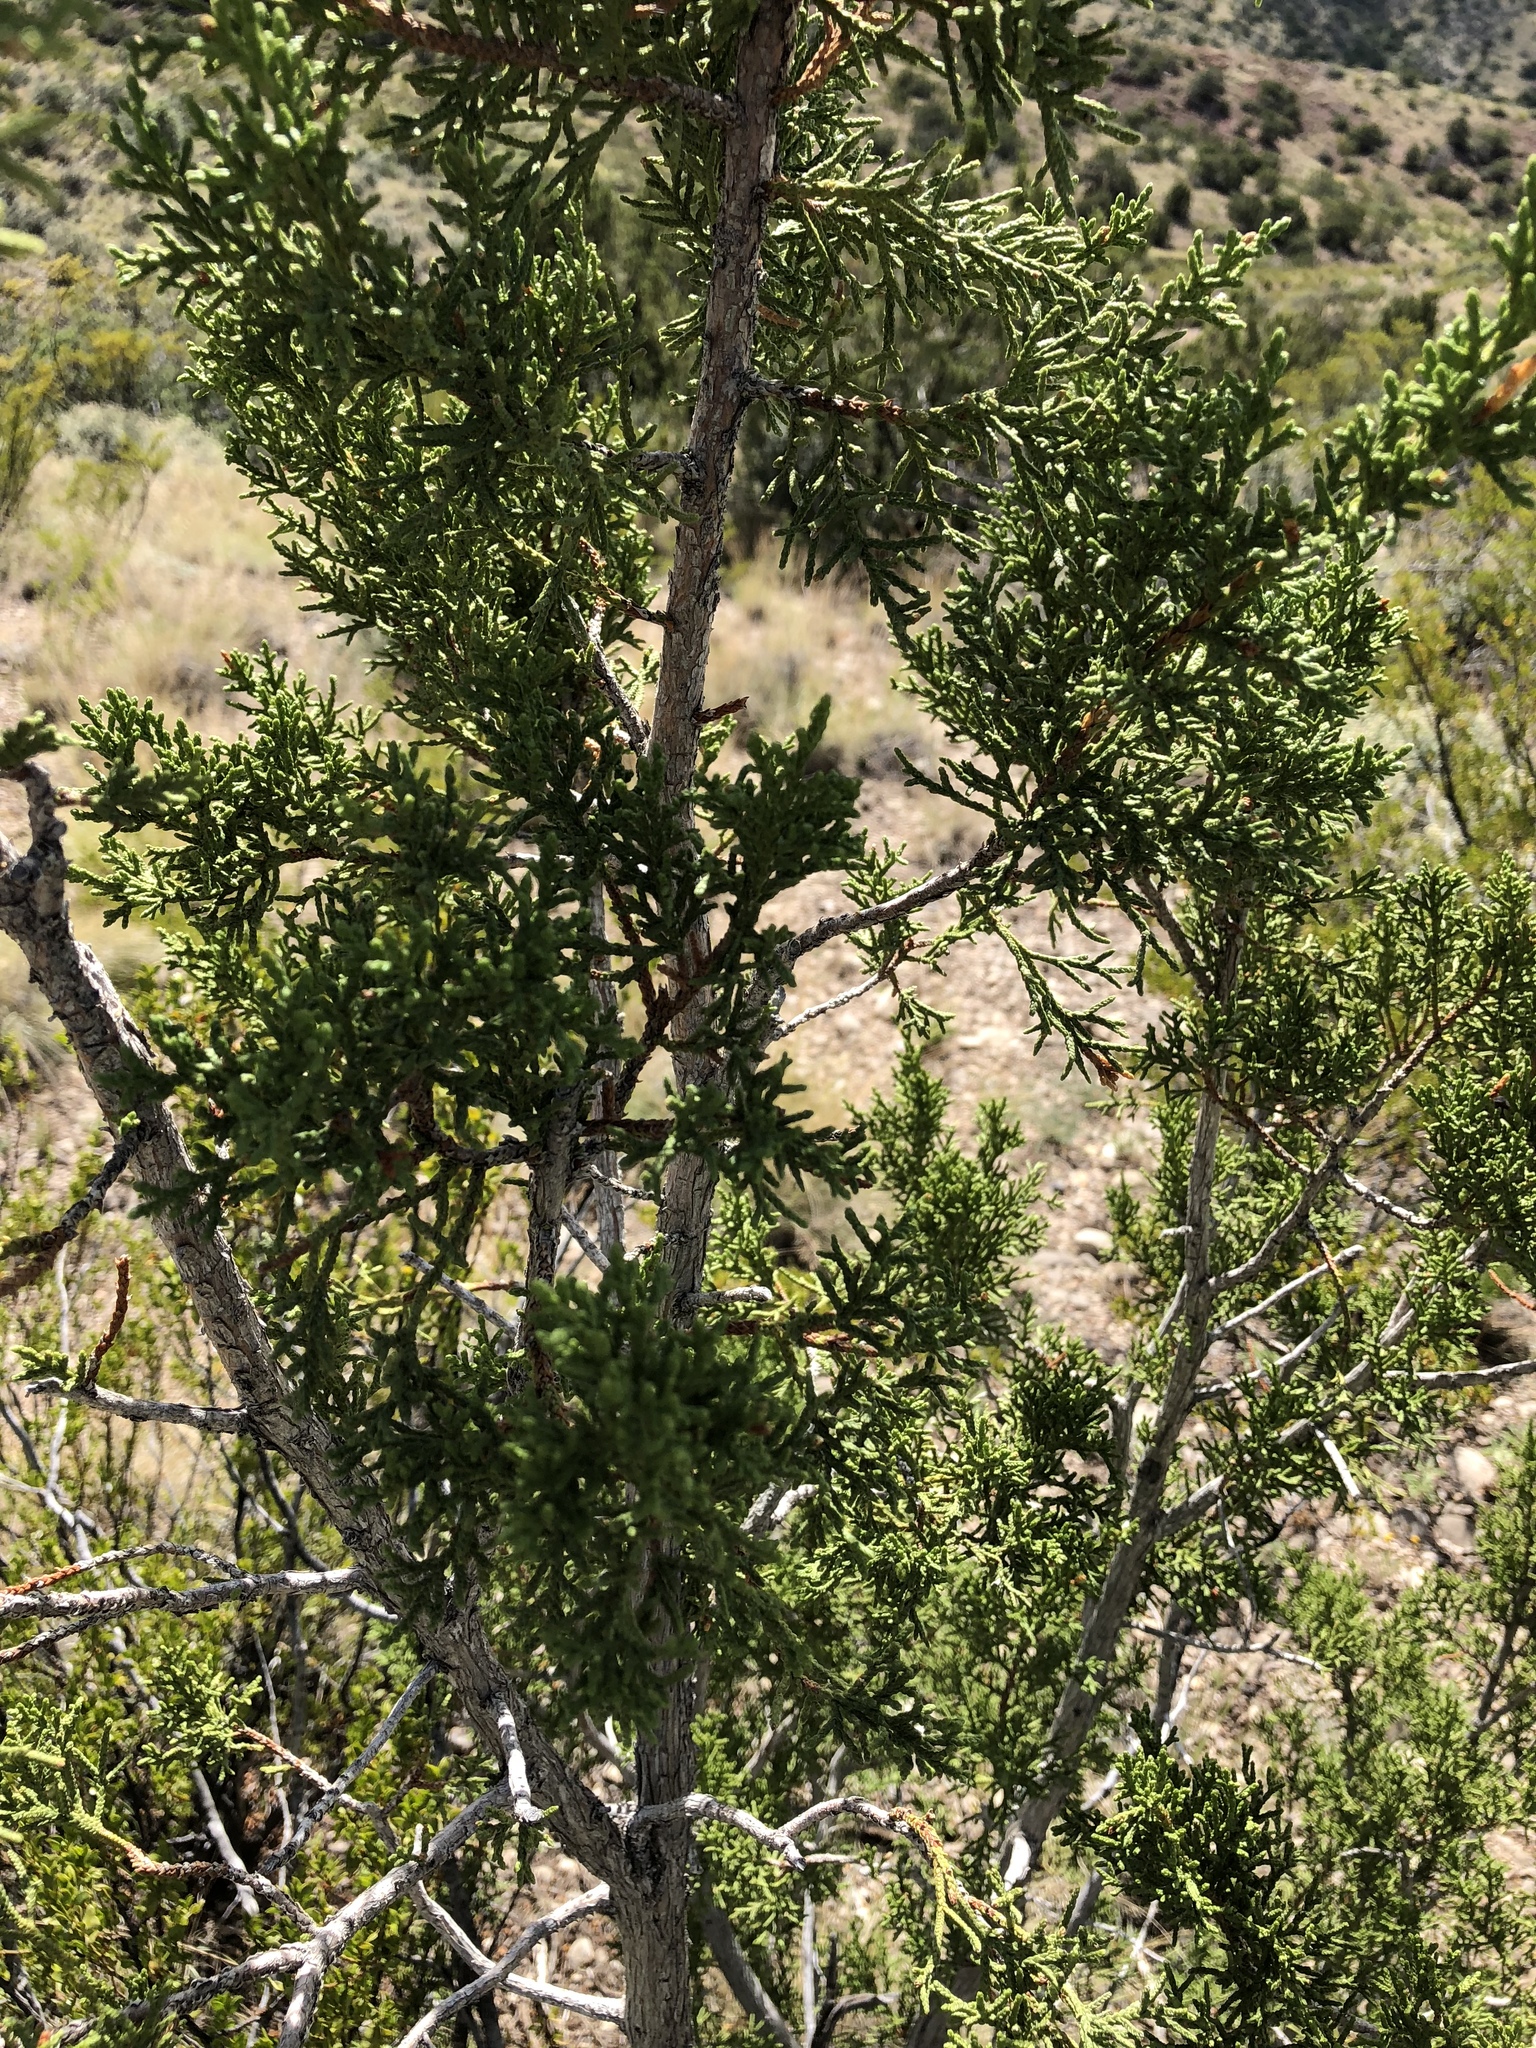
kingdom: Plantae
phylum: Tracheophyta
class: Pinopsida
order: Pinales
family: Cupressaceae
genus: Juniperus
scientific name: Juniperus monosperma
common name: One-seed juniper
